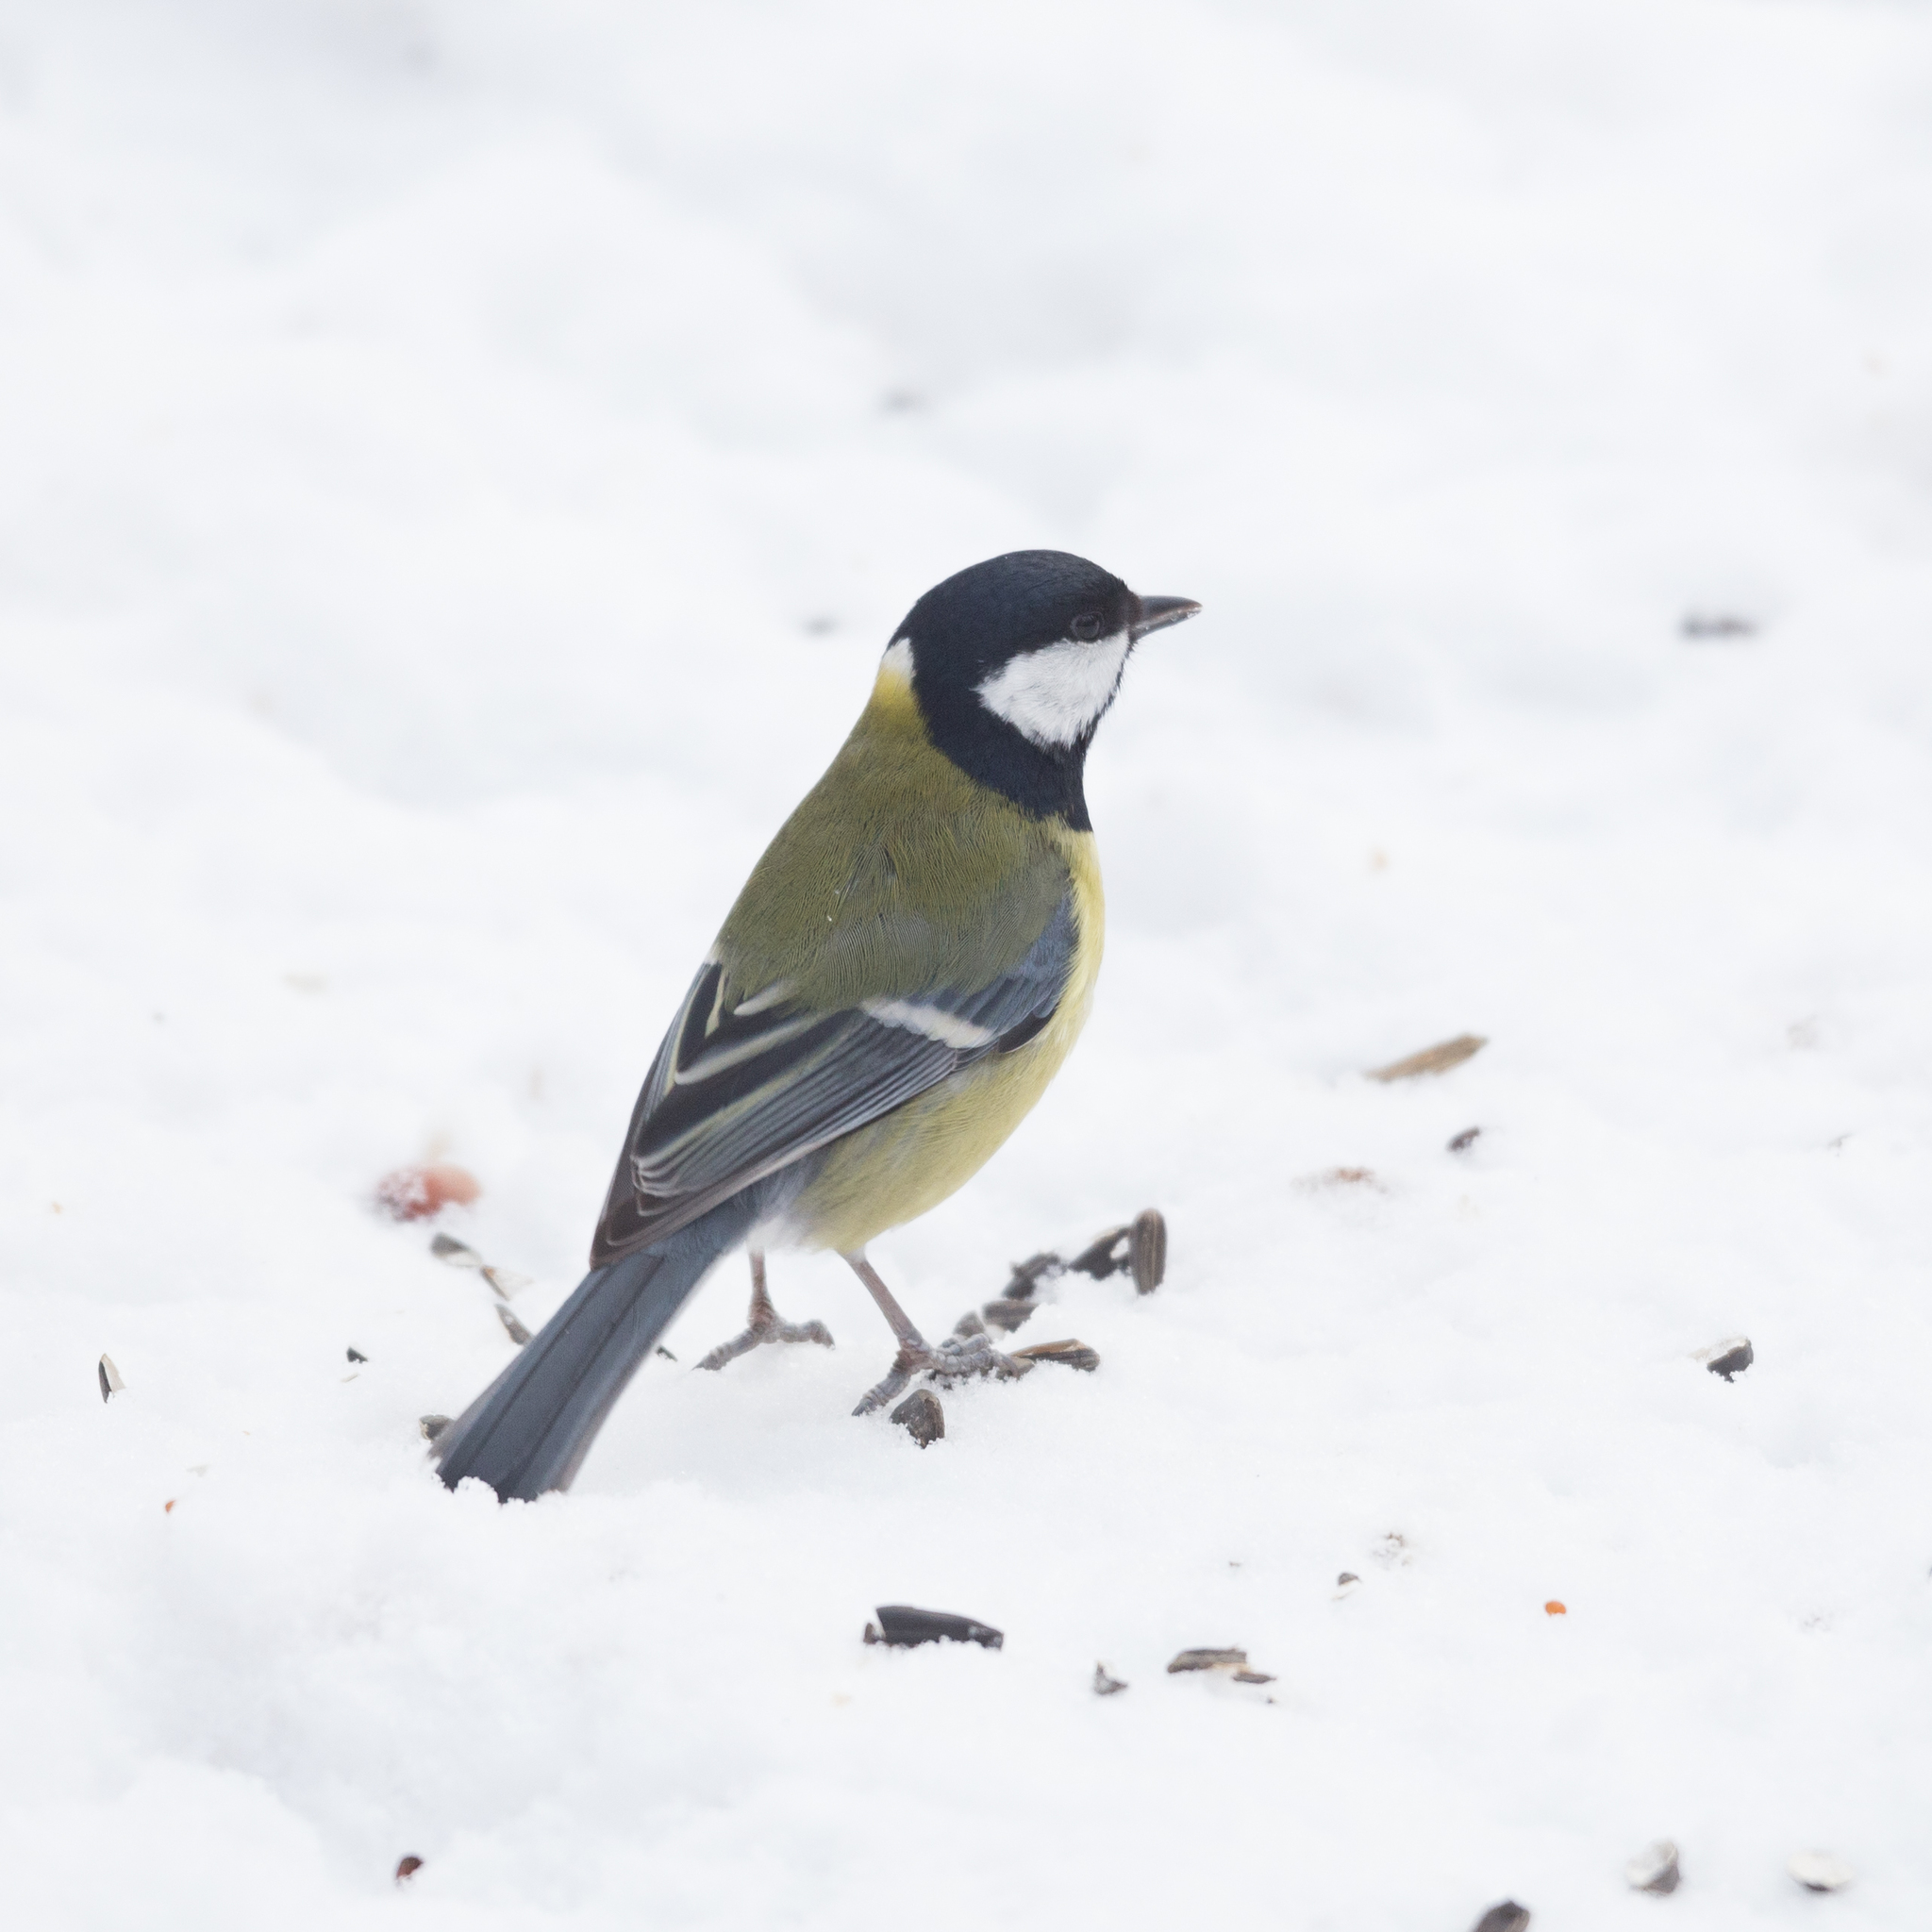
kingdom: Animalia
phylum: Chordata
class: Aves
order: Passeriformes
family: Paridae
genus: Parus
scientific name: Parus major
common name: Great tit
